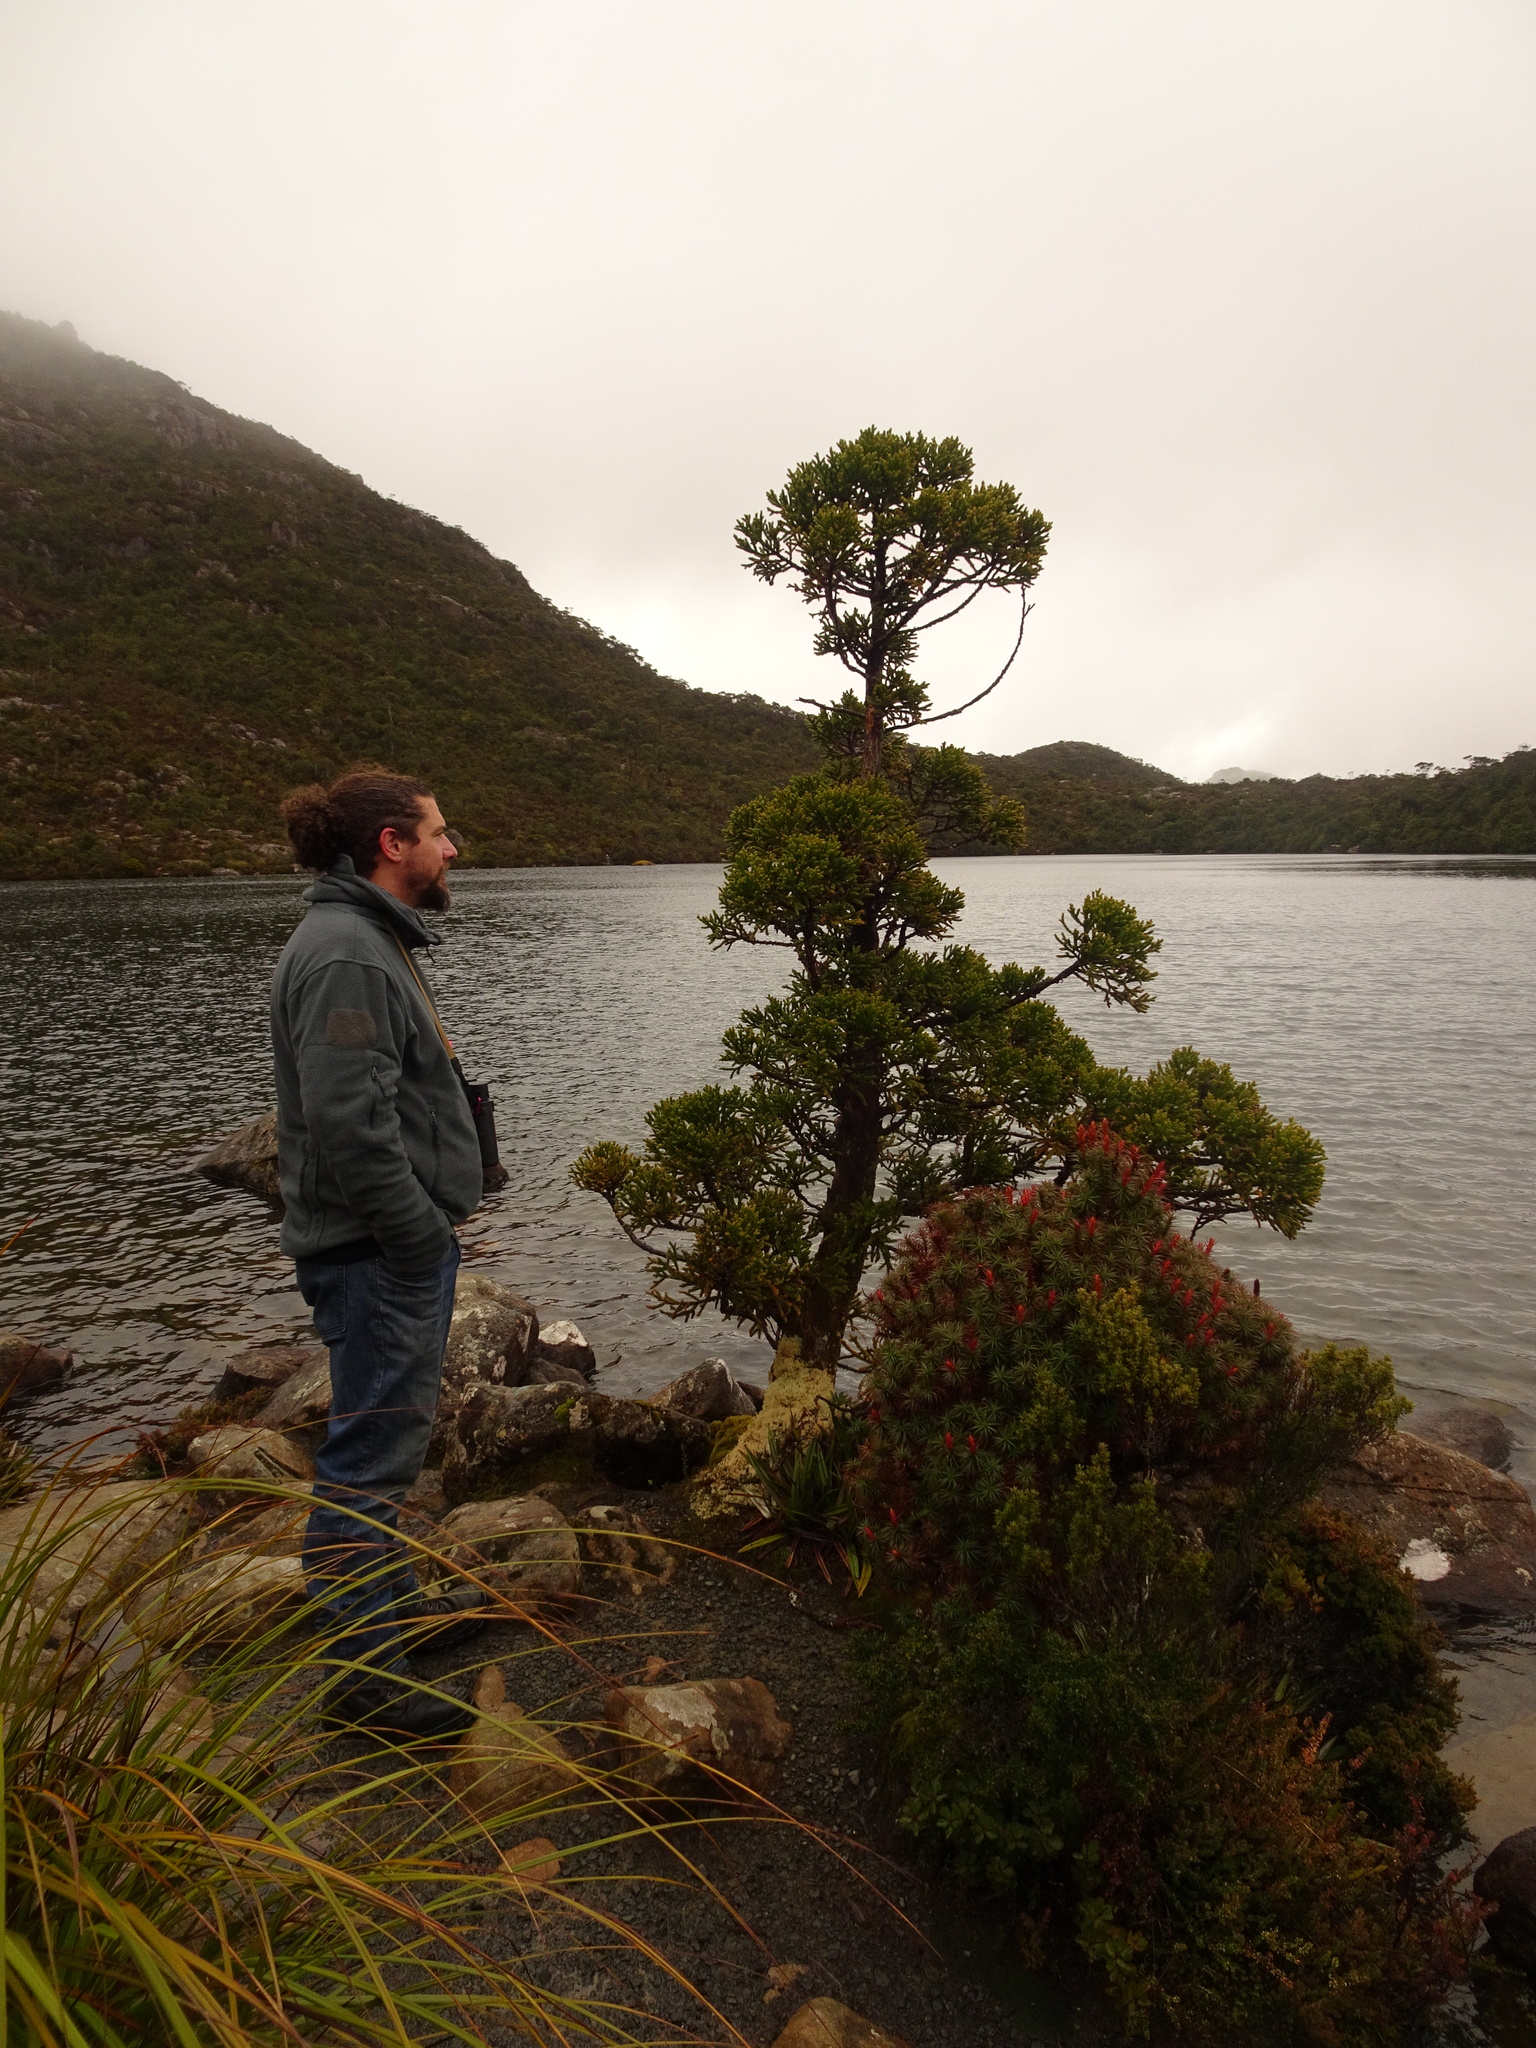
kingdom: Plantae
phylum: Tracheophyta
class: Pinopsida
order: Pinales
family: Cupressaceae
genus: Athrotaxis
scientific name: Athrotaxis selaginoides
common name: King william pine
